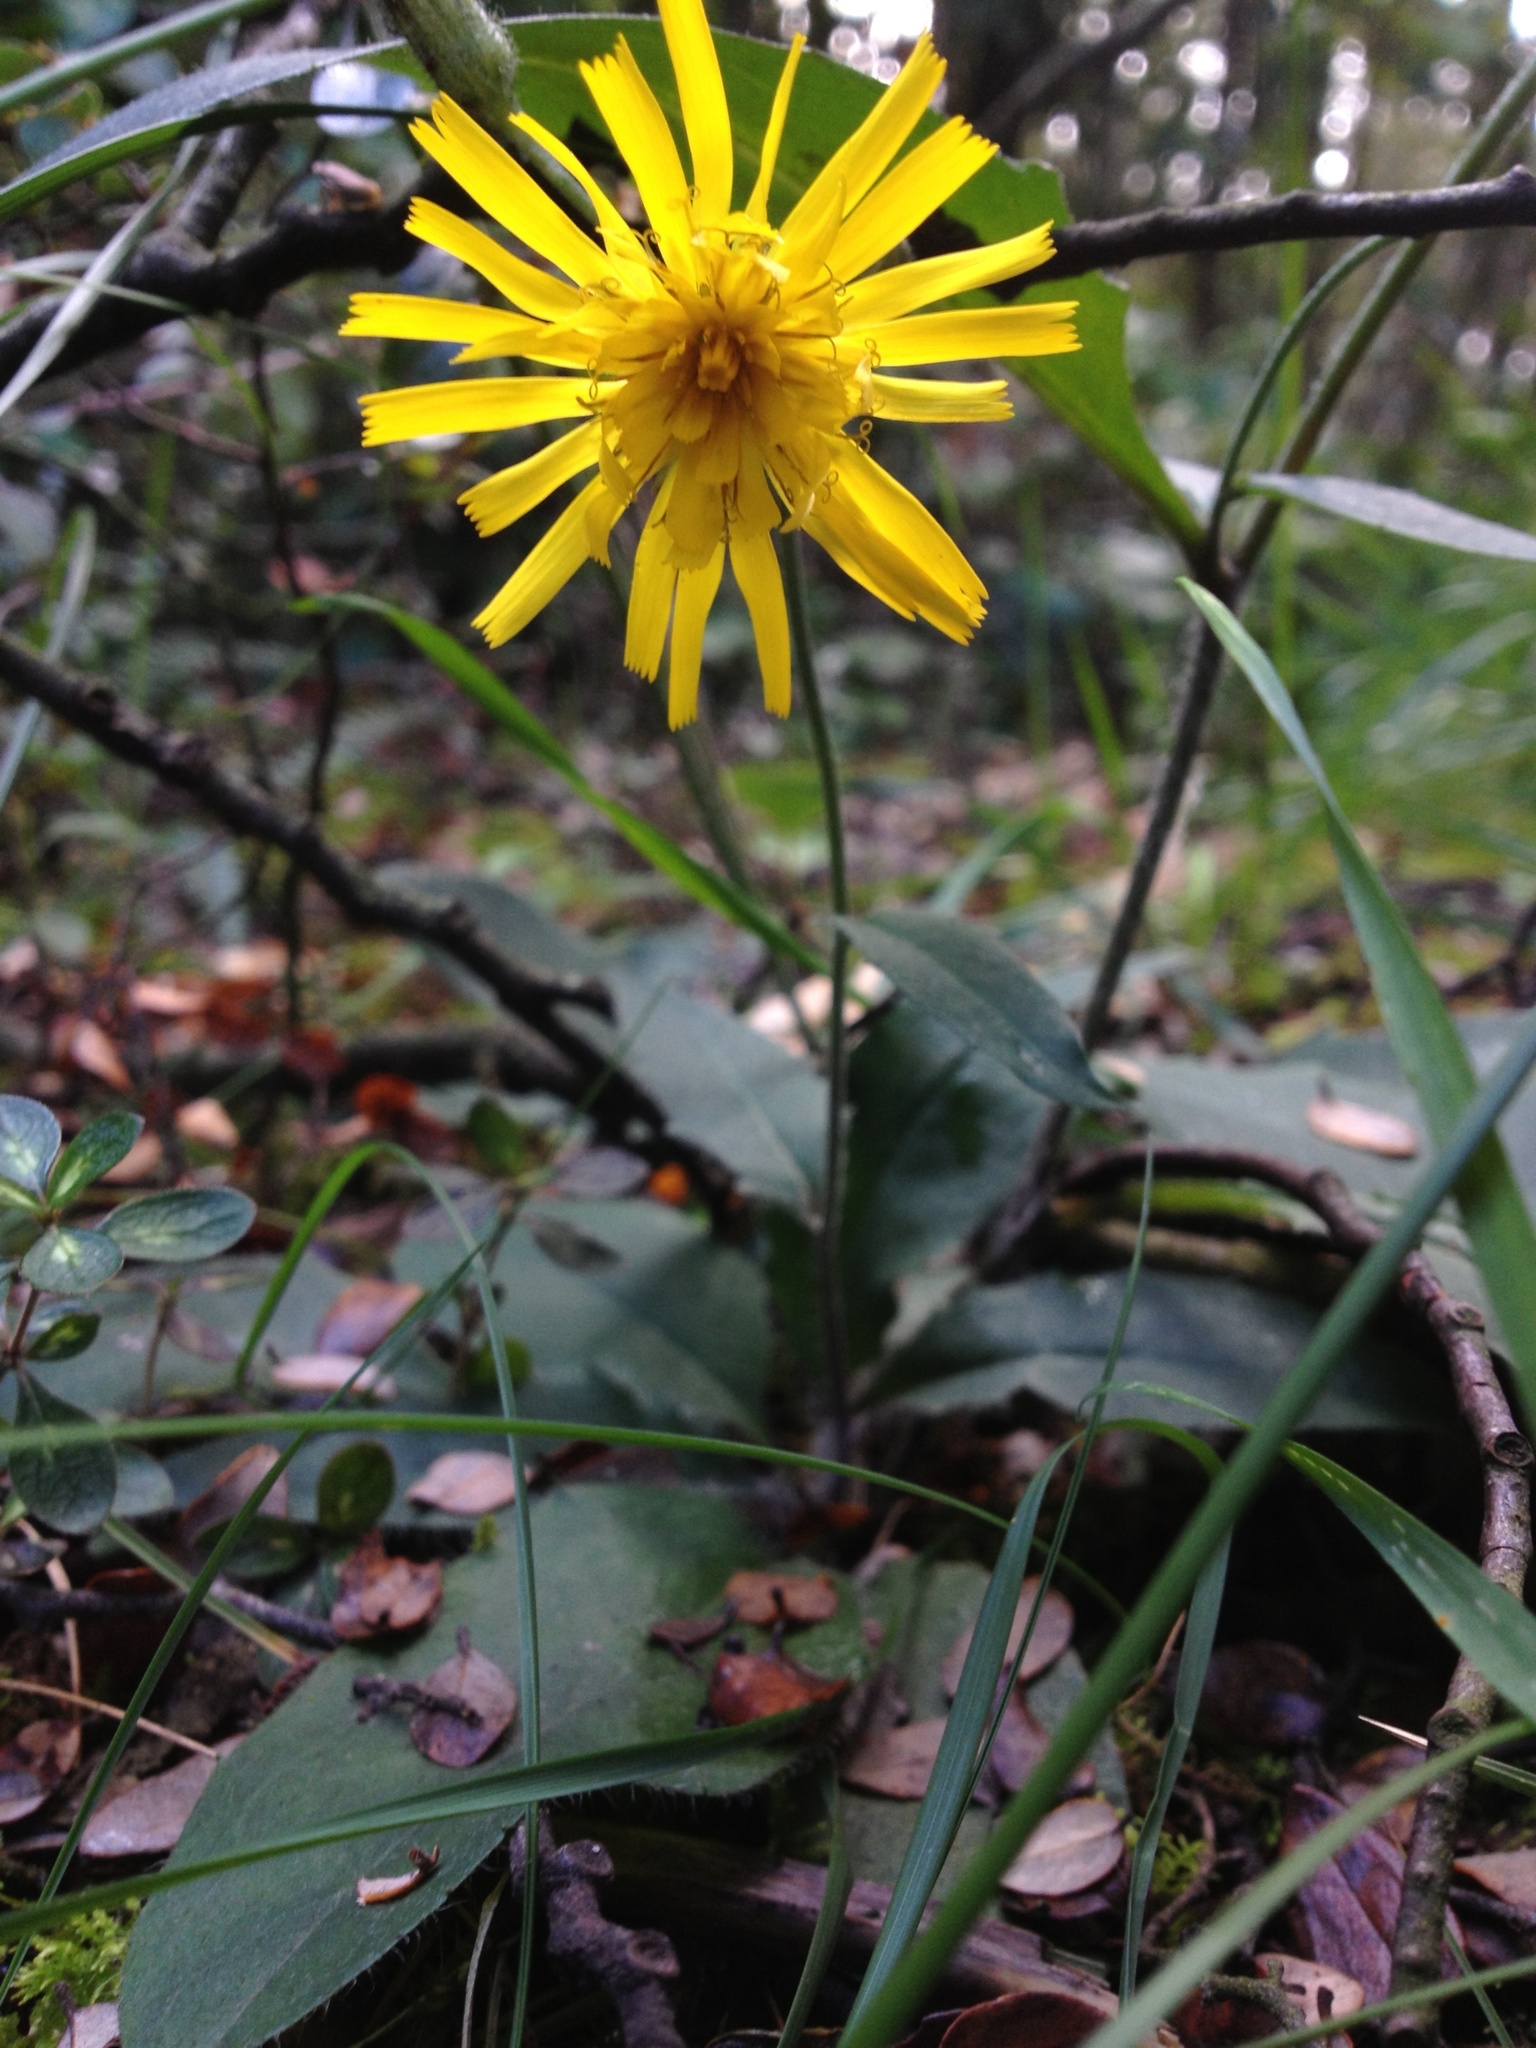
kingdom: Plantae
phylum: Tracheophyta
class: Magnoliopsida
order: Asterales
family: Asteraceae
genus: Hieracium
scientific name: Hieracium lepidulum
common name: Irregular-toothed hawkweed
